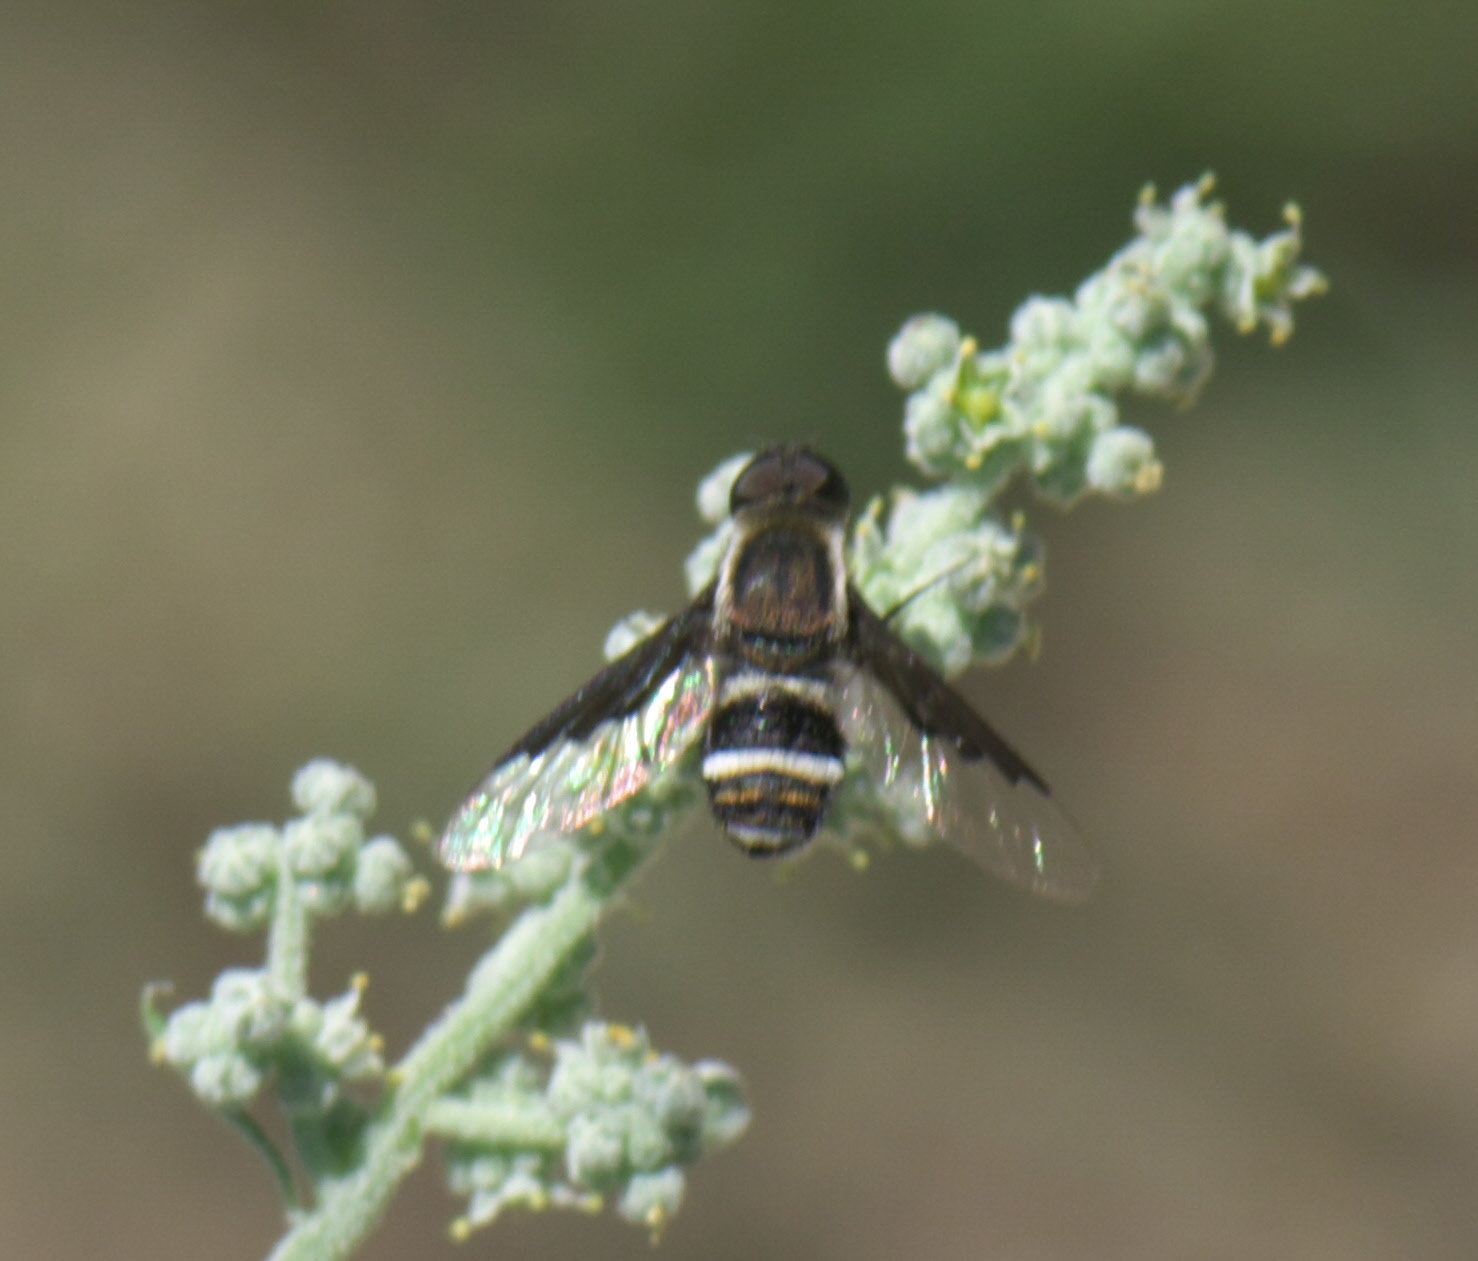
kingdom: Animalia
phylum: Arthropoda
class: Insecta
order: Diptera
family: Bombyliidae
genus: Hemipenthes
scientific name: Hemipenthes lepidotus
